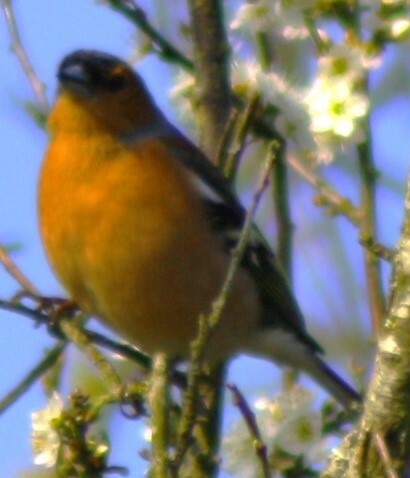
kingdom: Animalia
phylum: Chordata
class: Aves
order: Passeriformes
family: Fringillidae
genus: Fringilla
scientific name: Fringilla coelebs
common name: Common chaffinch
